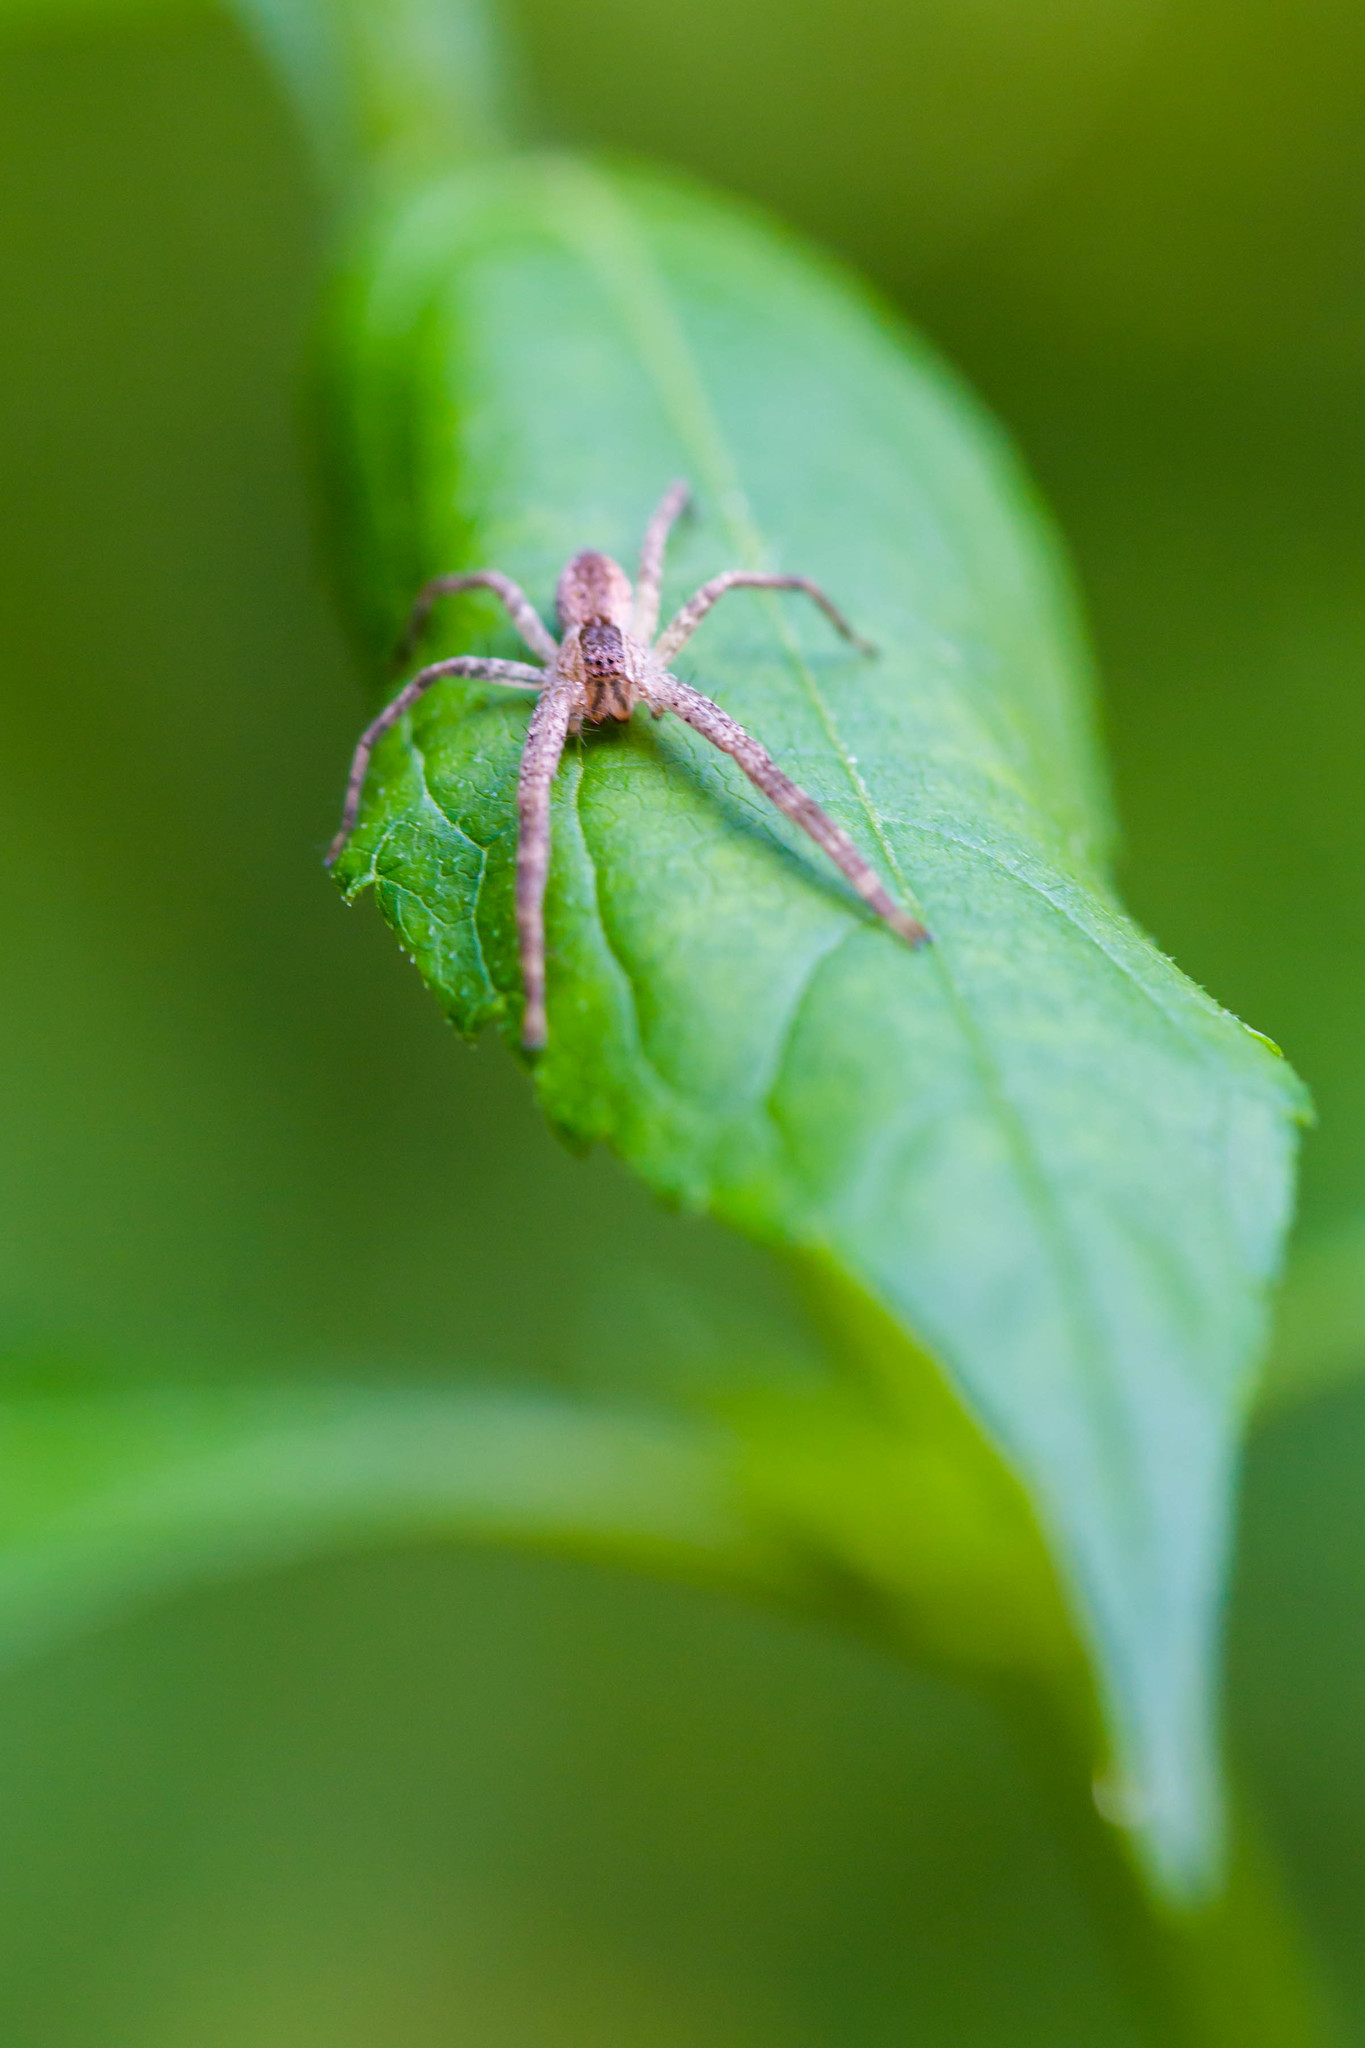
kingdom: Animalia
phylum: Arthropoda
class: Arachnida
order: Araneae
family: Pisauridae
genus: Pisaurina
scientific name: Pisaurina mira
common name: American nursery web spider
